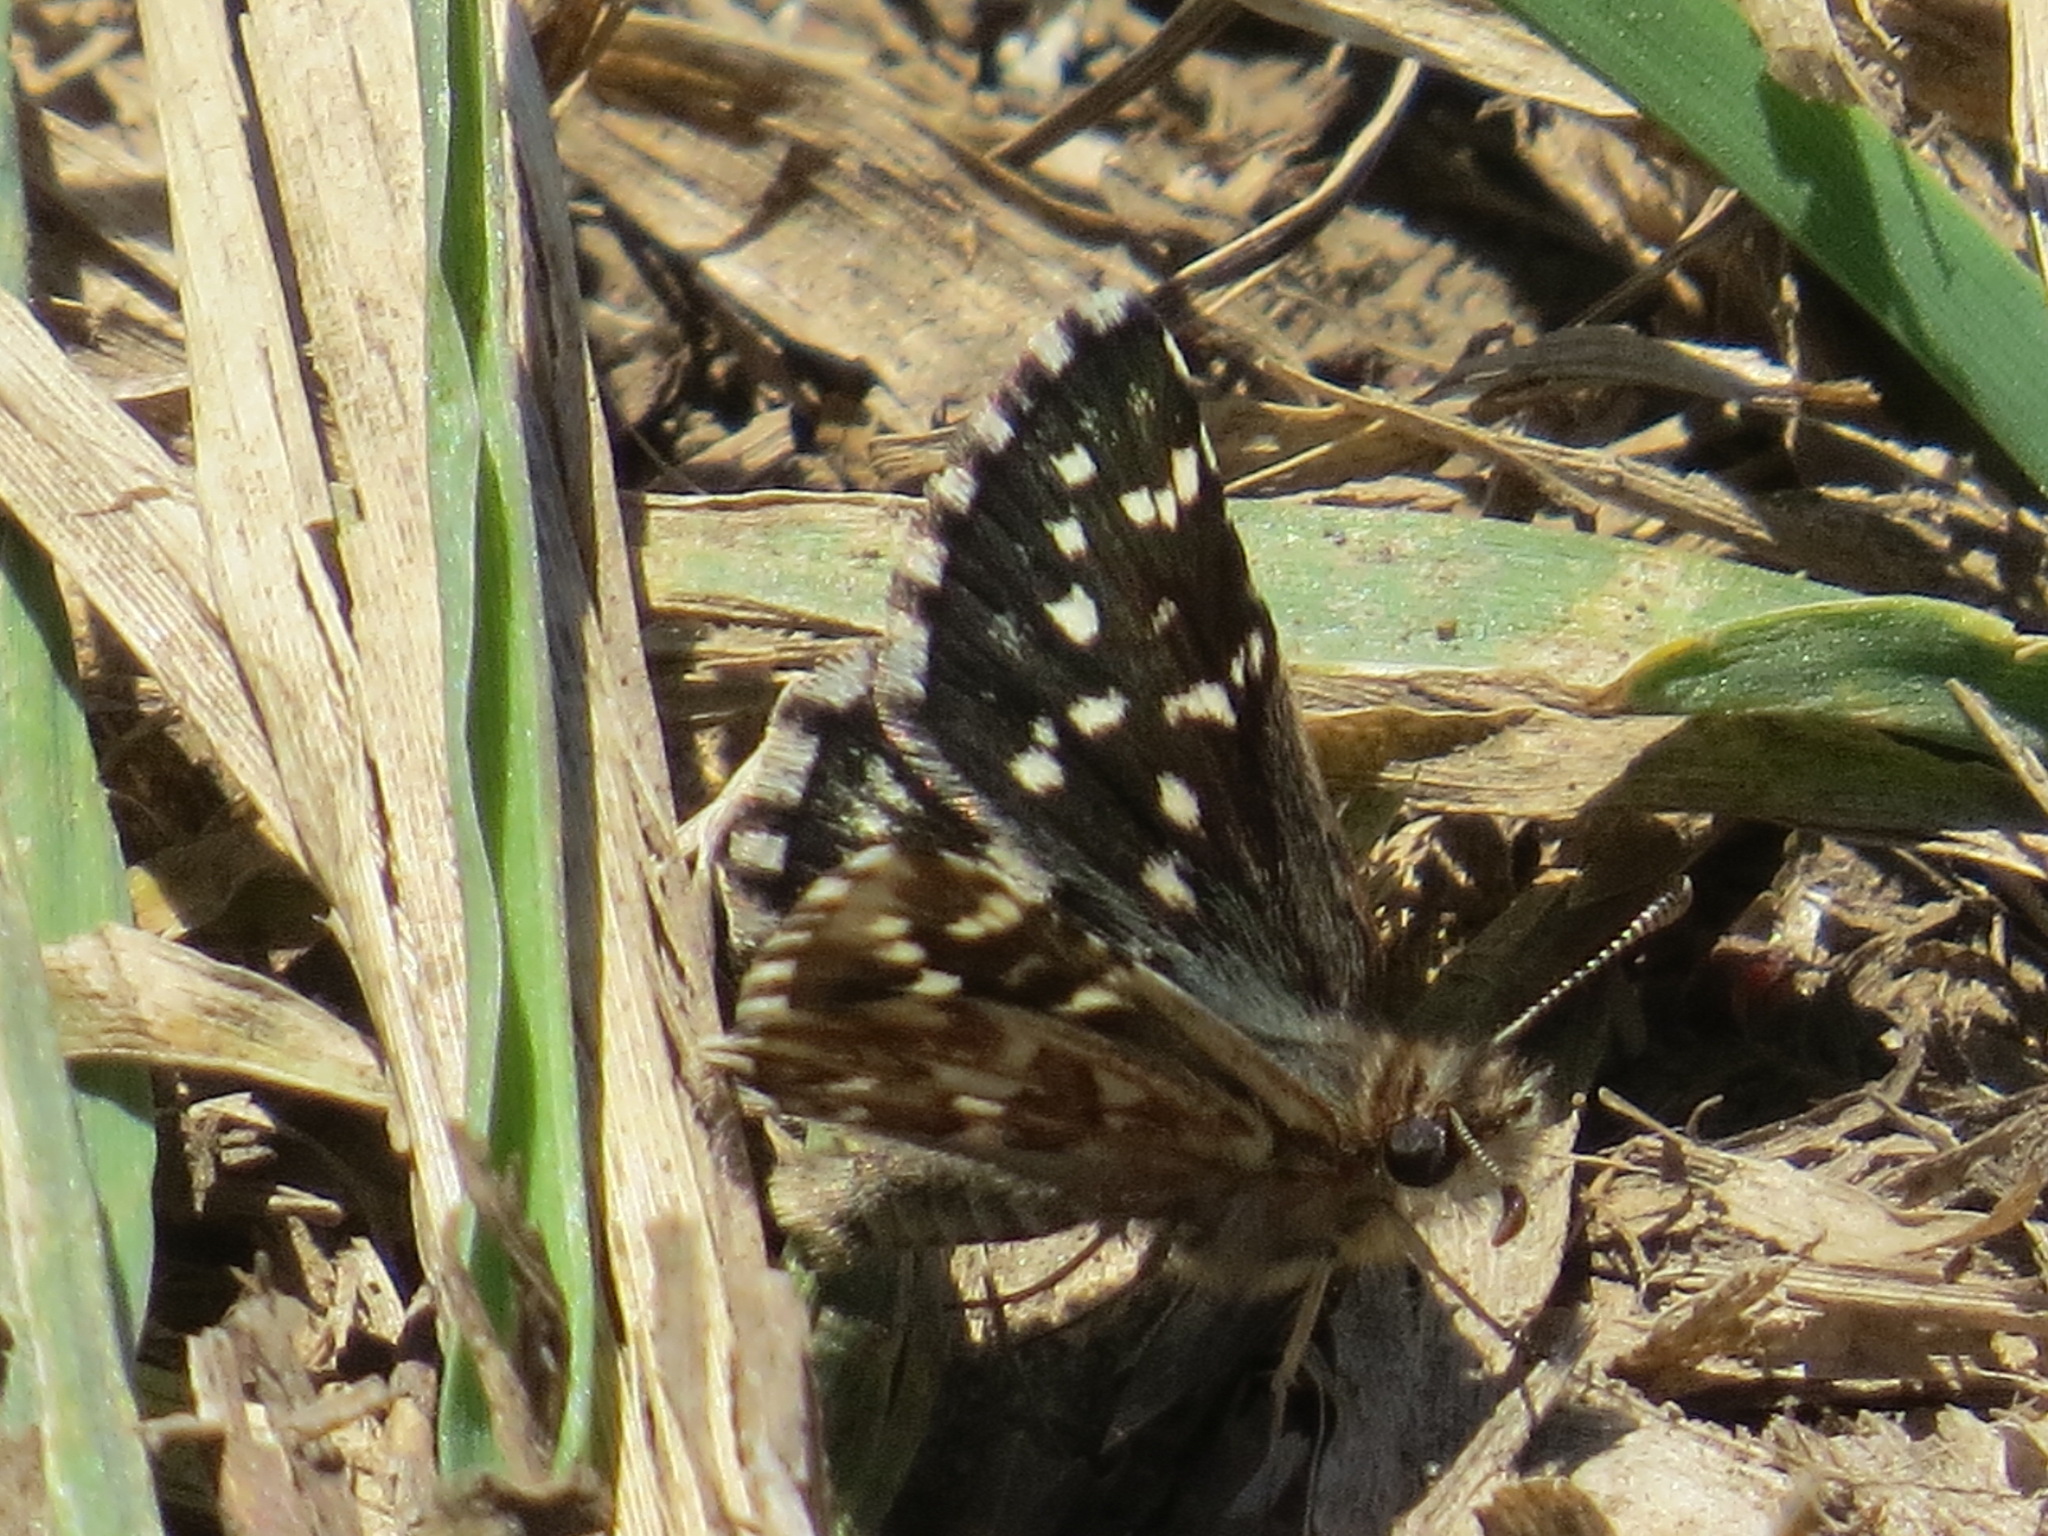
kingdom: Animalia
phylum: Arthropoda
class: Insecta
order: Lepidoptera
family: Hesperiidae
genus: Pyrgus
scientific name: Pyrgus ruralis
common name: Two-banded checkered-skipper
